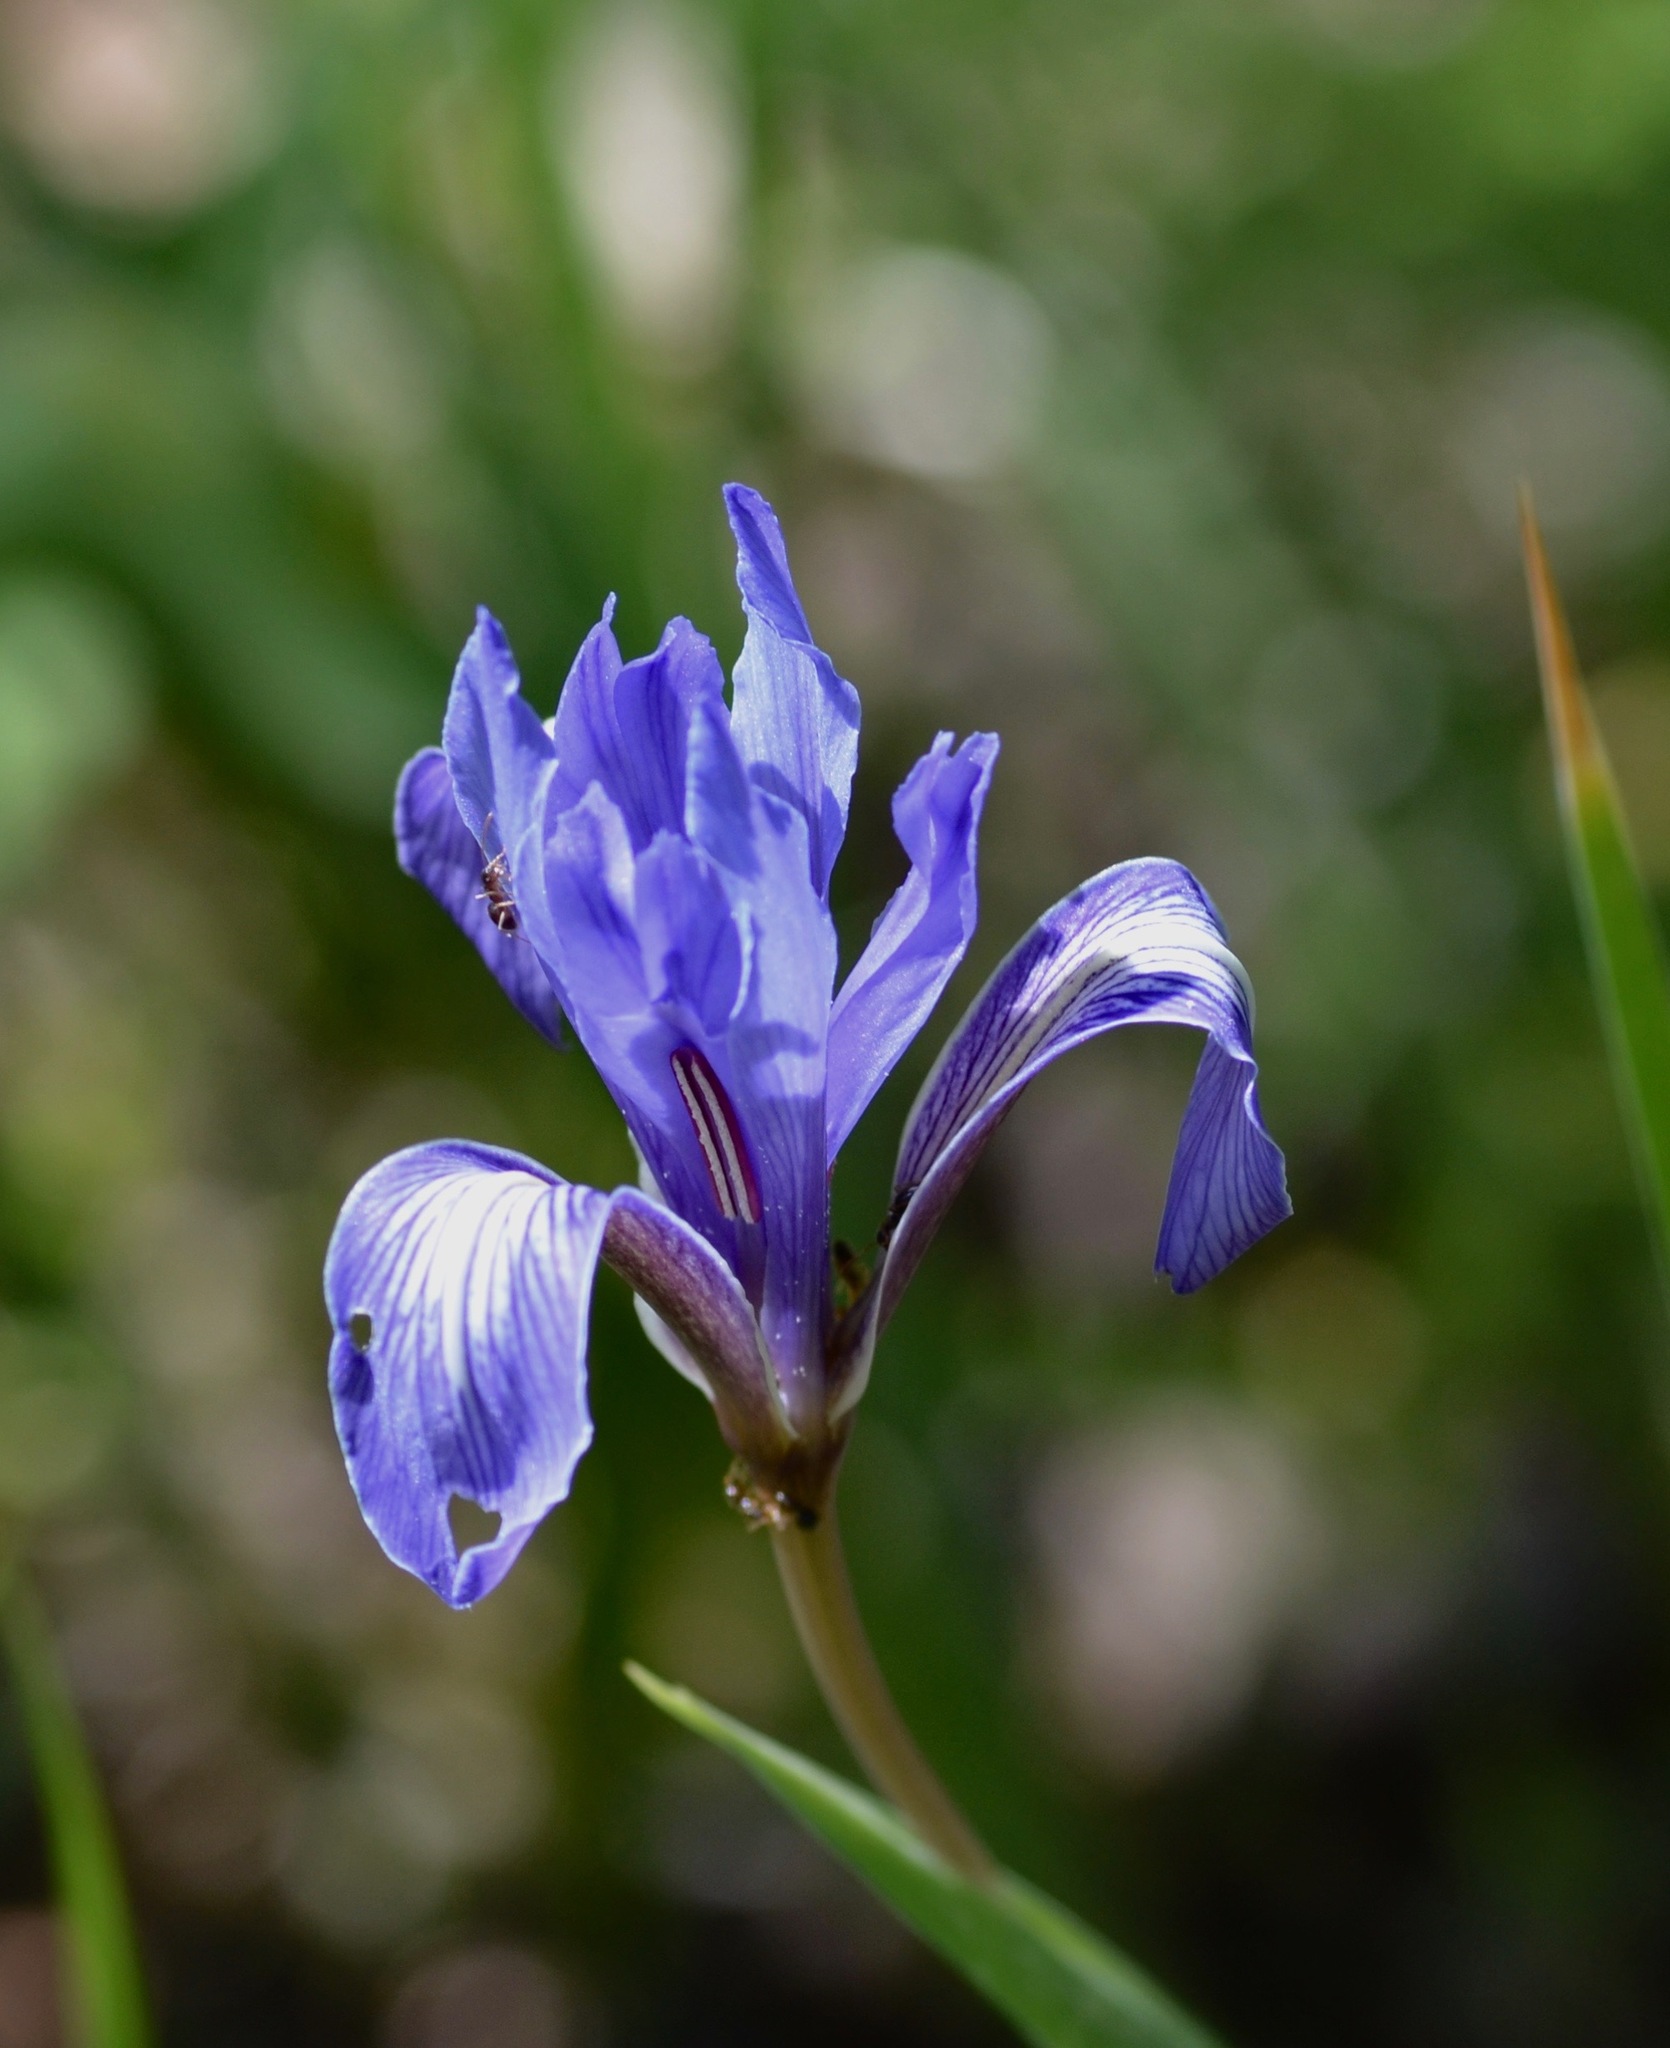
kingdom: Plantae
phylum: Tracheophyta
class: Liliopsida
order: Asparagales
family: Iridaceae
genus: Iris
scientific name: Iris macrosiphon
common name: Ground iris
